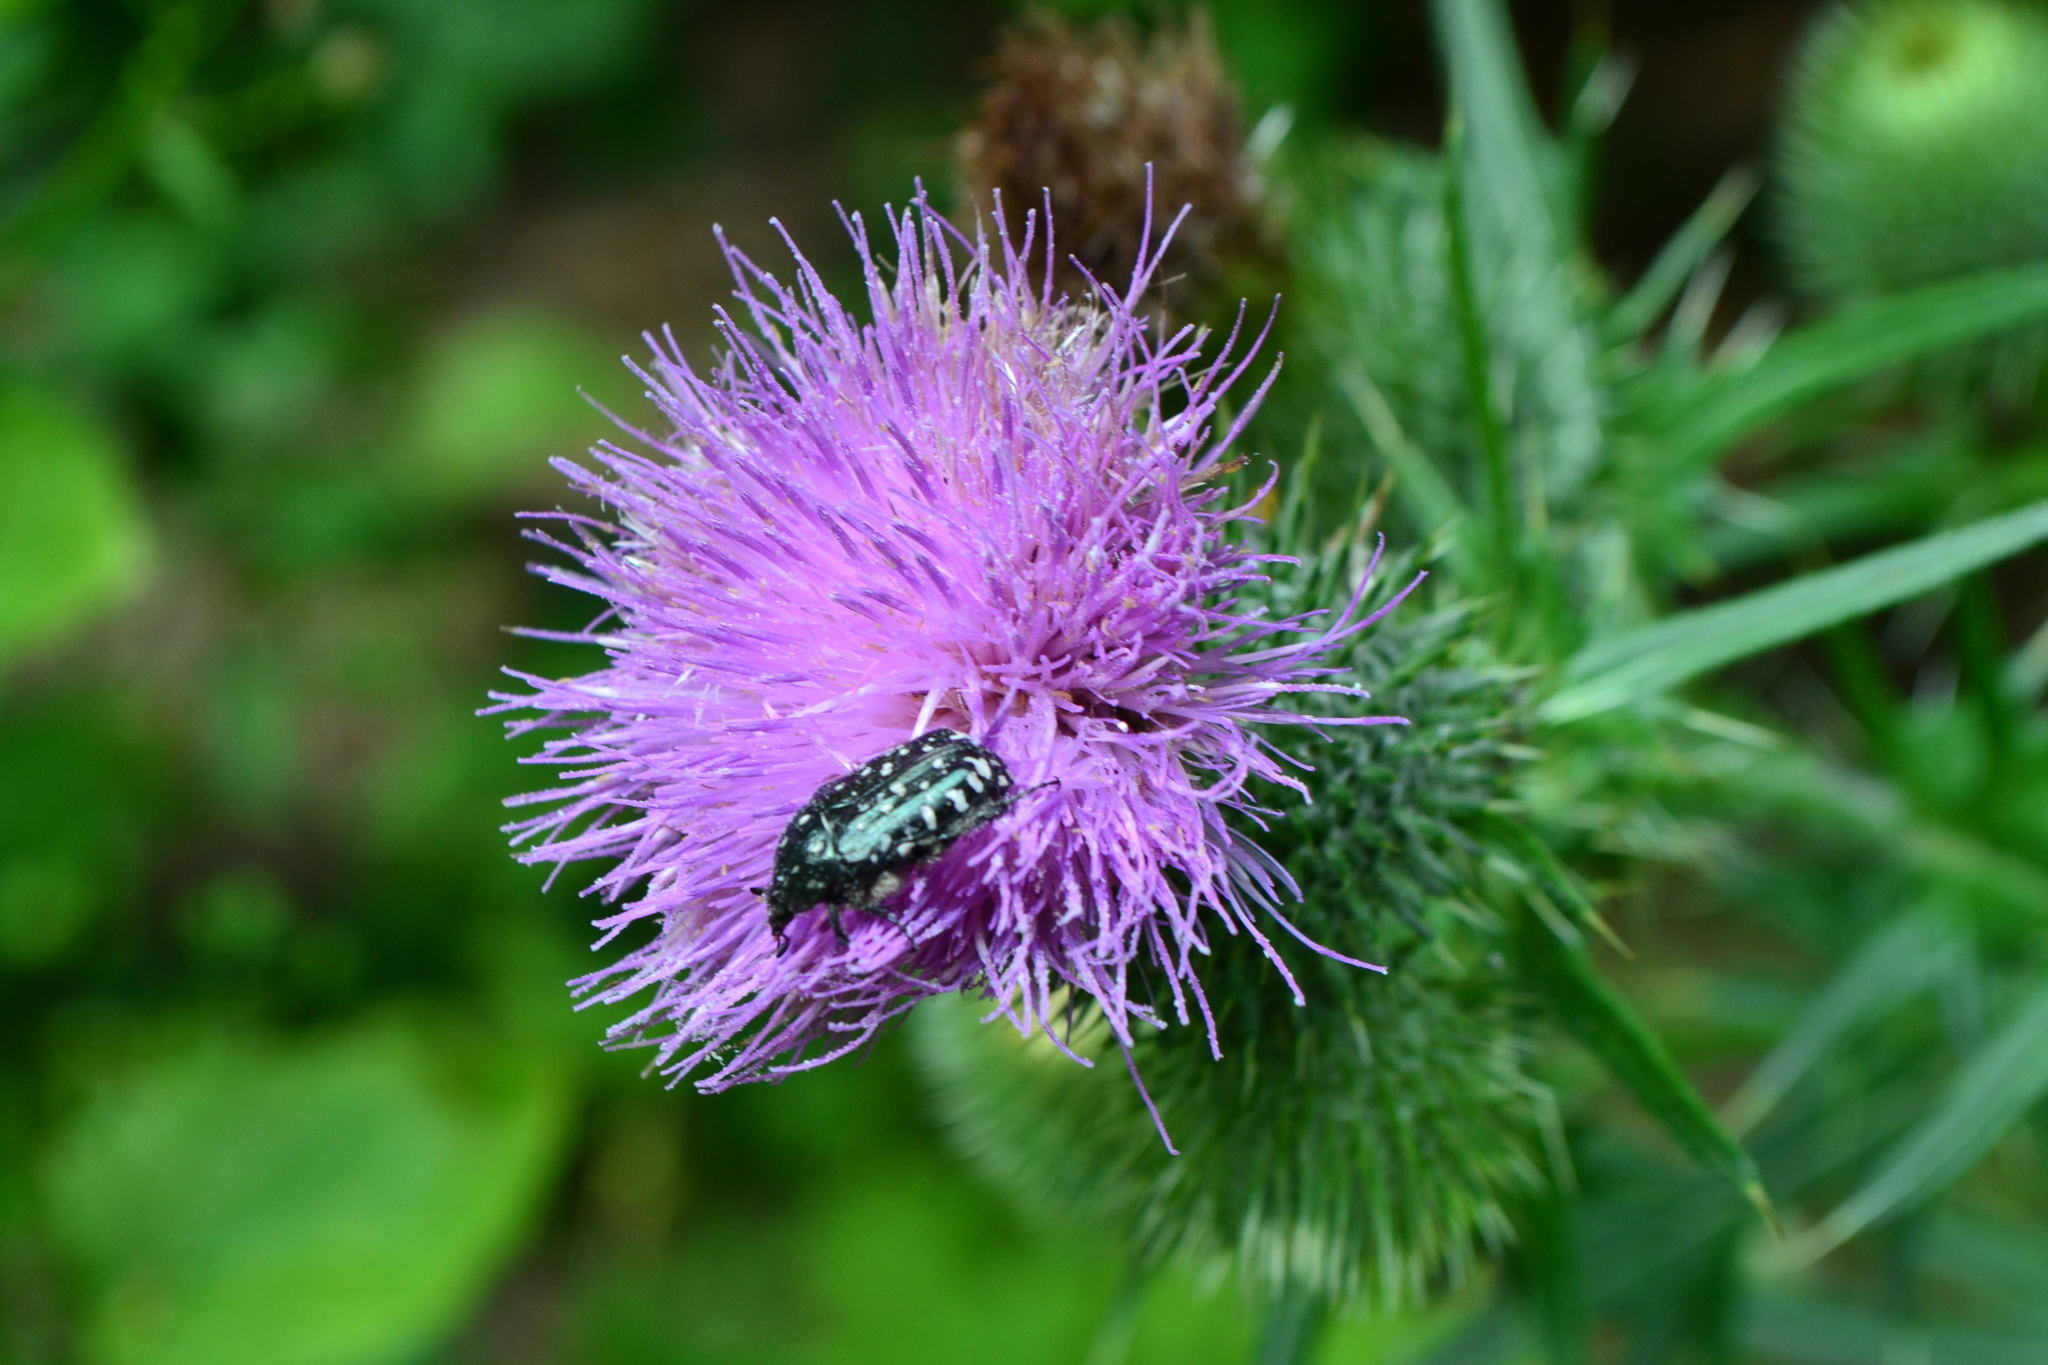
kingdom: Animalia
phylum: Arthropoda
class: Insecta
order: Coleoptera
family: Scarabaeidae
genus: Oxythyrea
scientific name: Oxythyrea funesta
